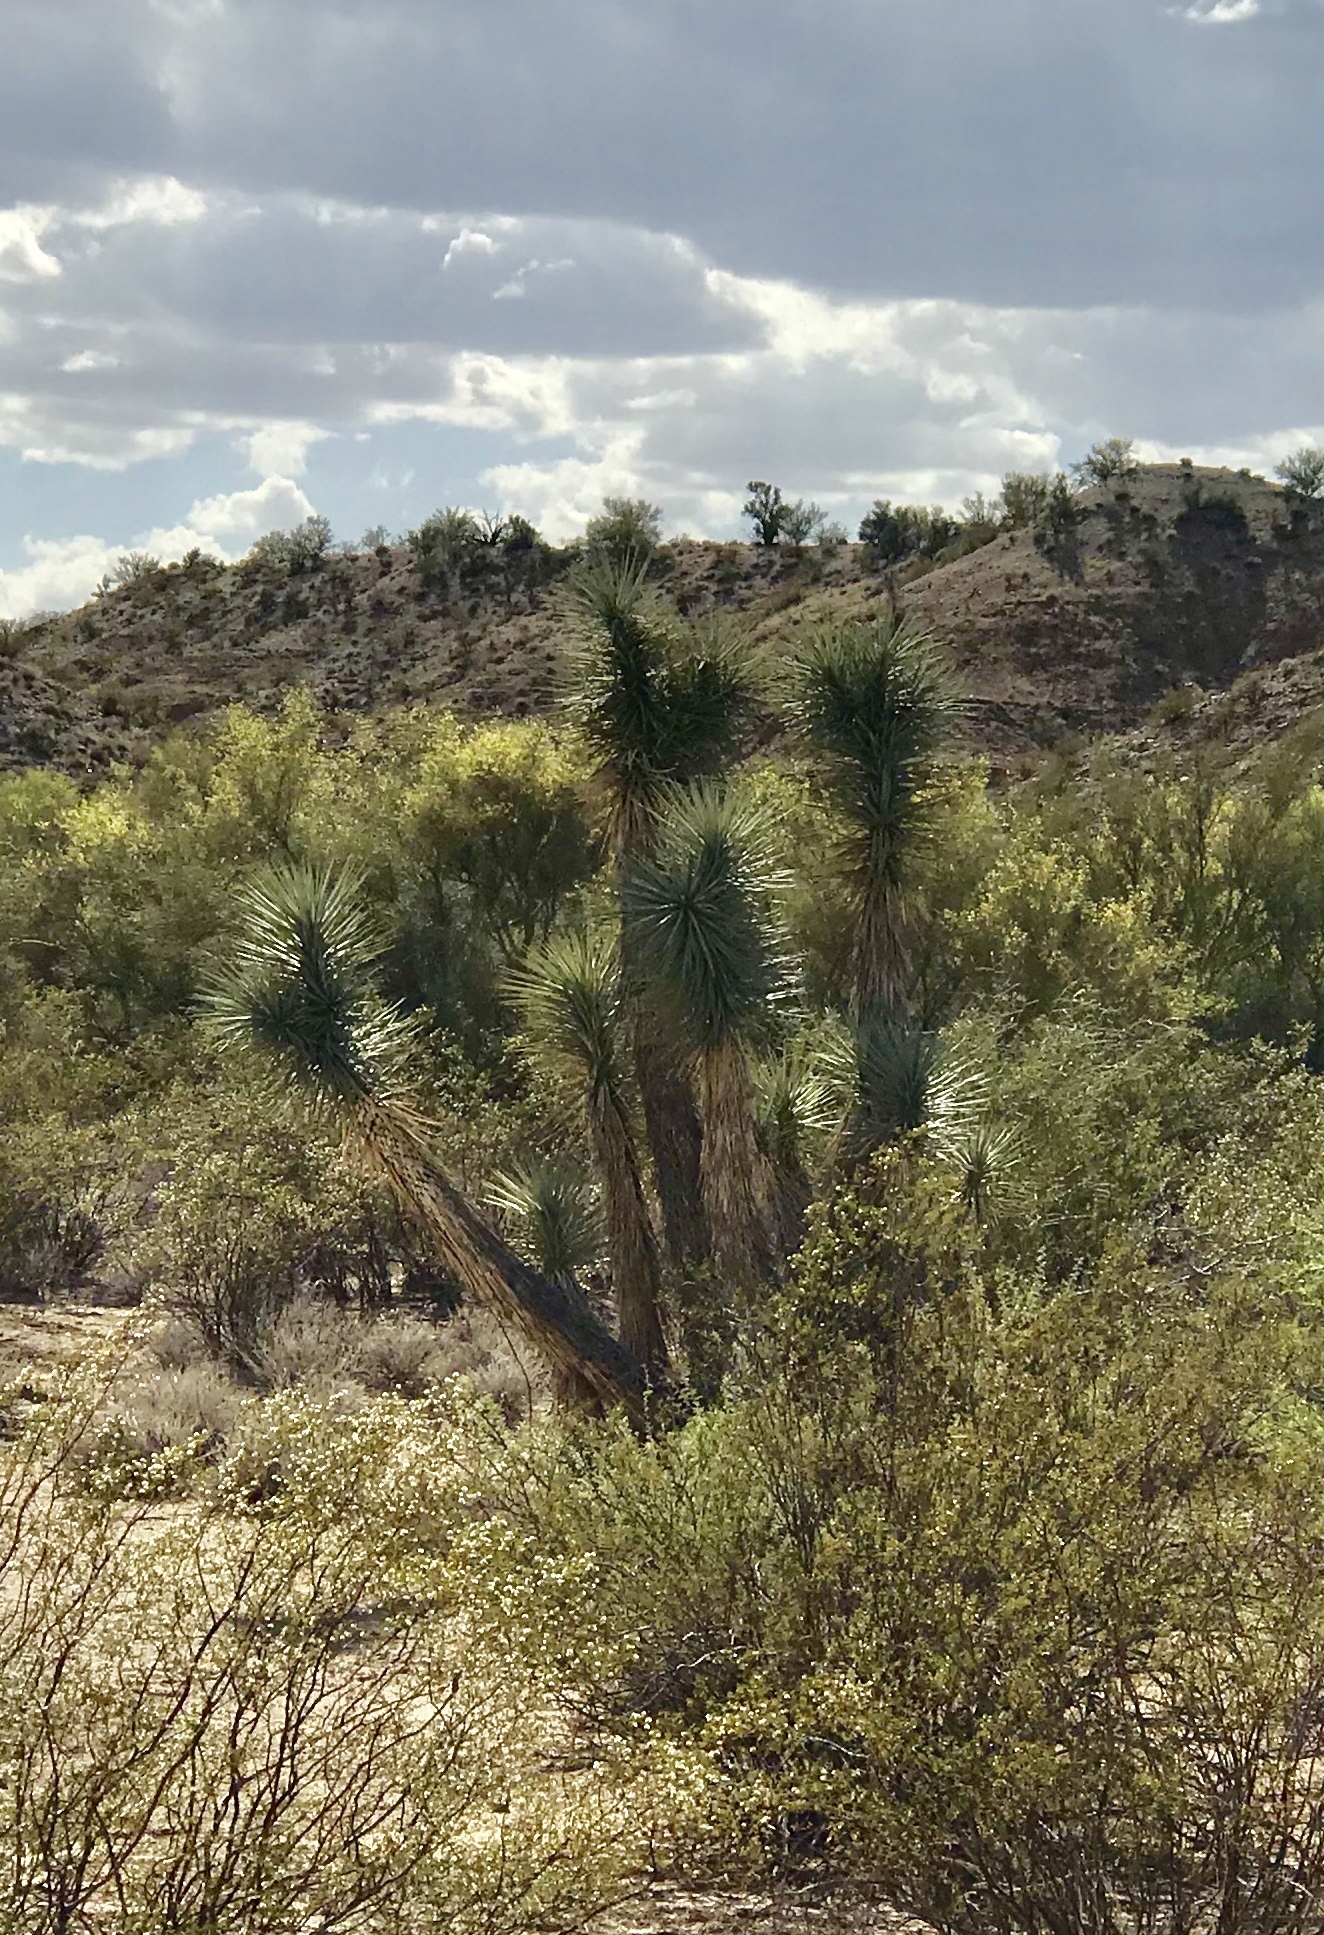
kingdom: Plantae
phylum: Tracheophyta
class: Liliopsida
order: Asparagales
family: Asparagaceae
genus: Yucca
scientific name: Yucca brevifolia
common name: Joshua tree
